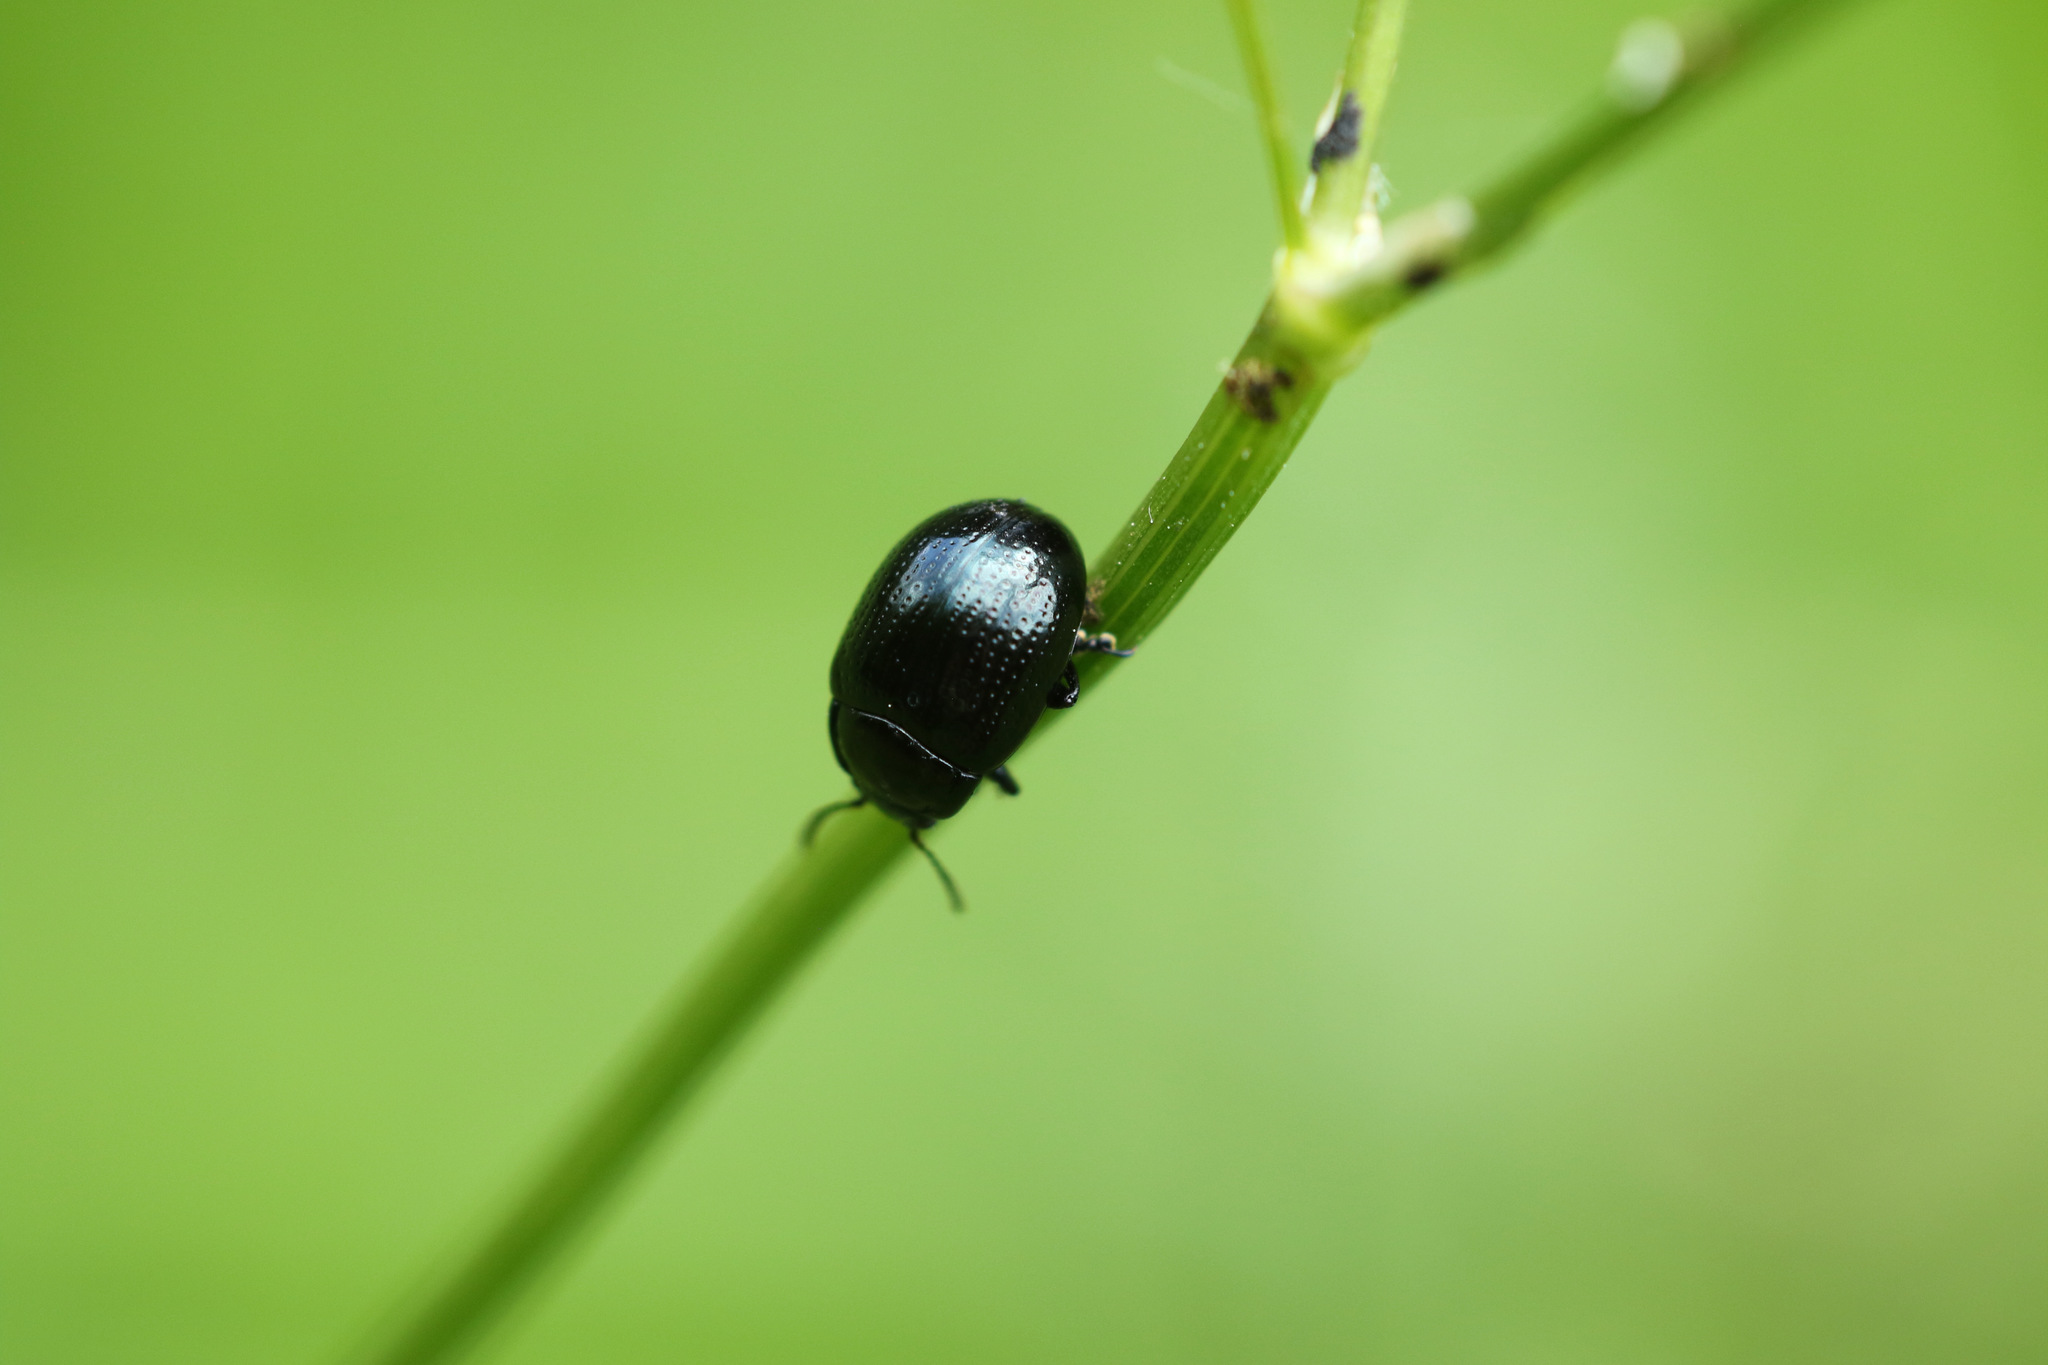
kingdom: Animalia
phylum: Arthropoda
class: Insecta
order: Coleoptera
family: Chrysomelidae
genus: Chrysolina
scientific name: Chrysolina oricalcia
